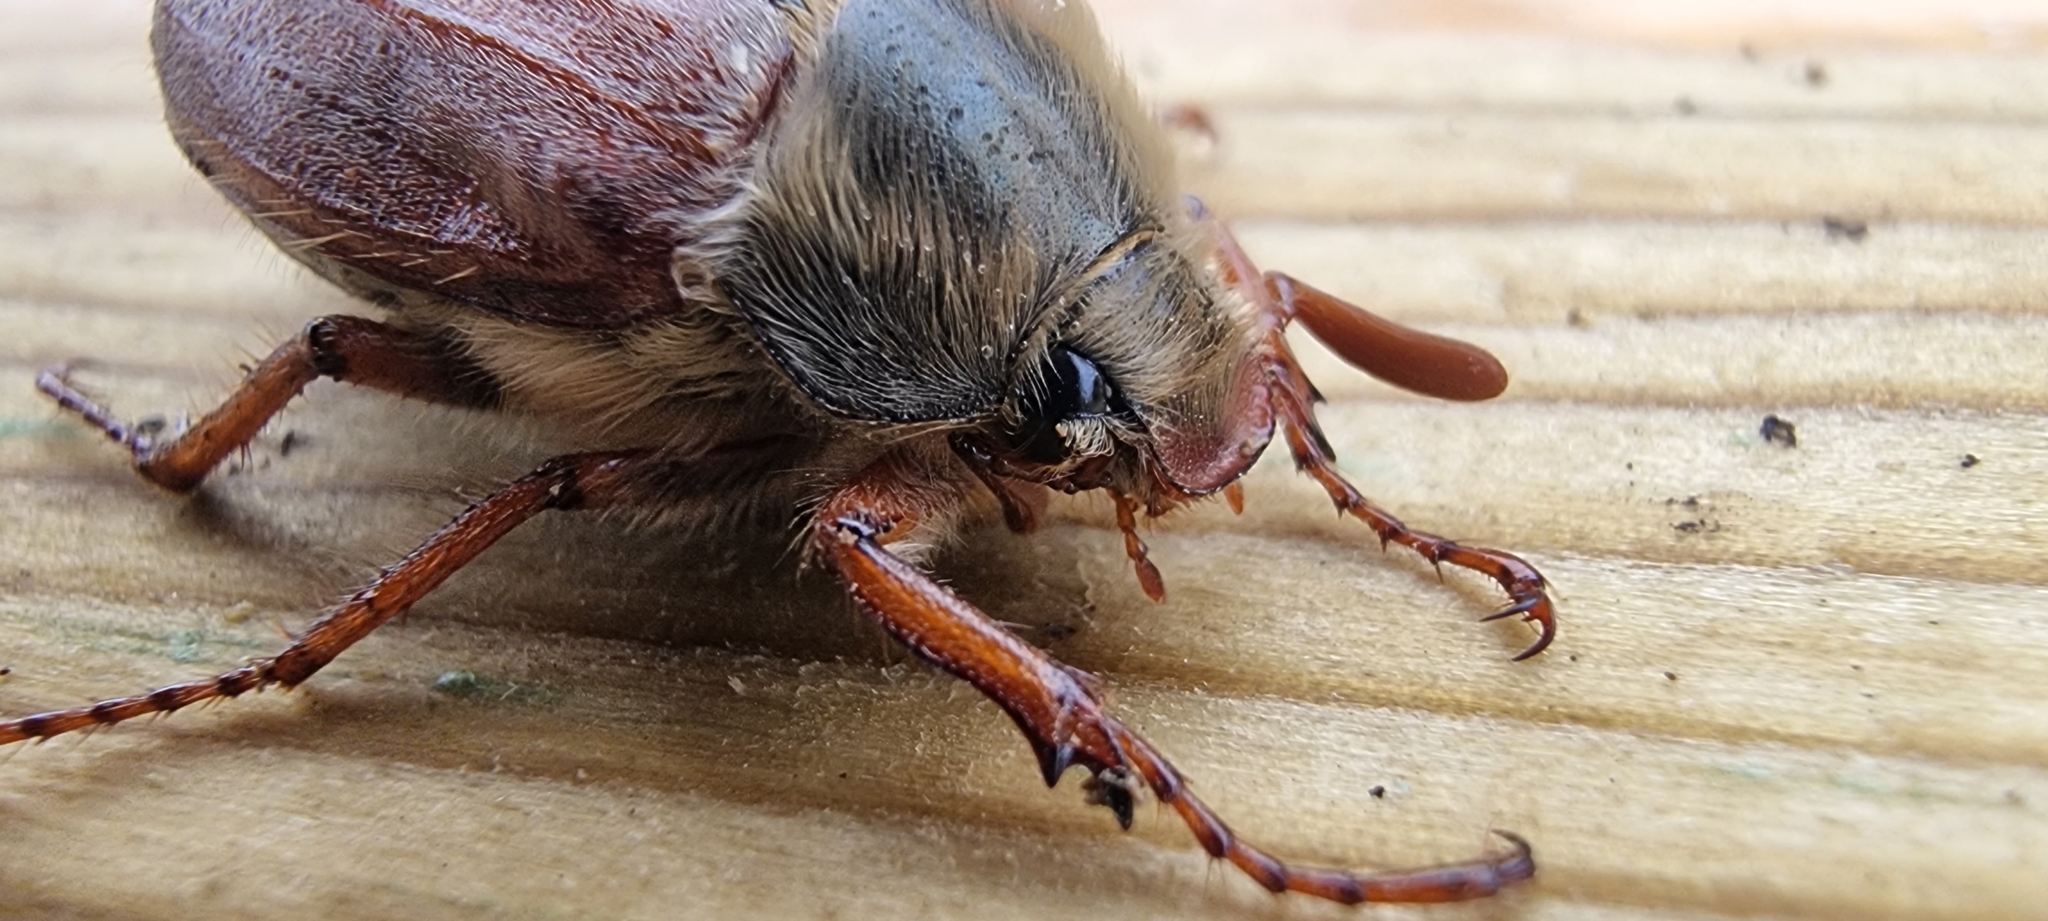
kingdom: Animalia
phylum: Arthropoda
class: Insecta
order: Coleoptera
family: Scarabaeidae
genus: Melolontha
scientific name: Melolontha melolontha
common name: Cockchafer maybeetle
